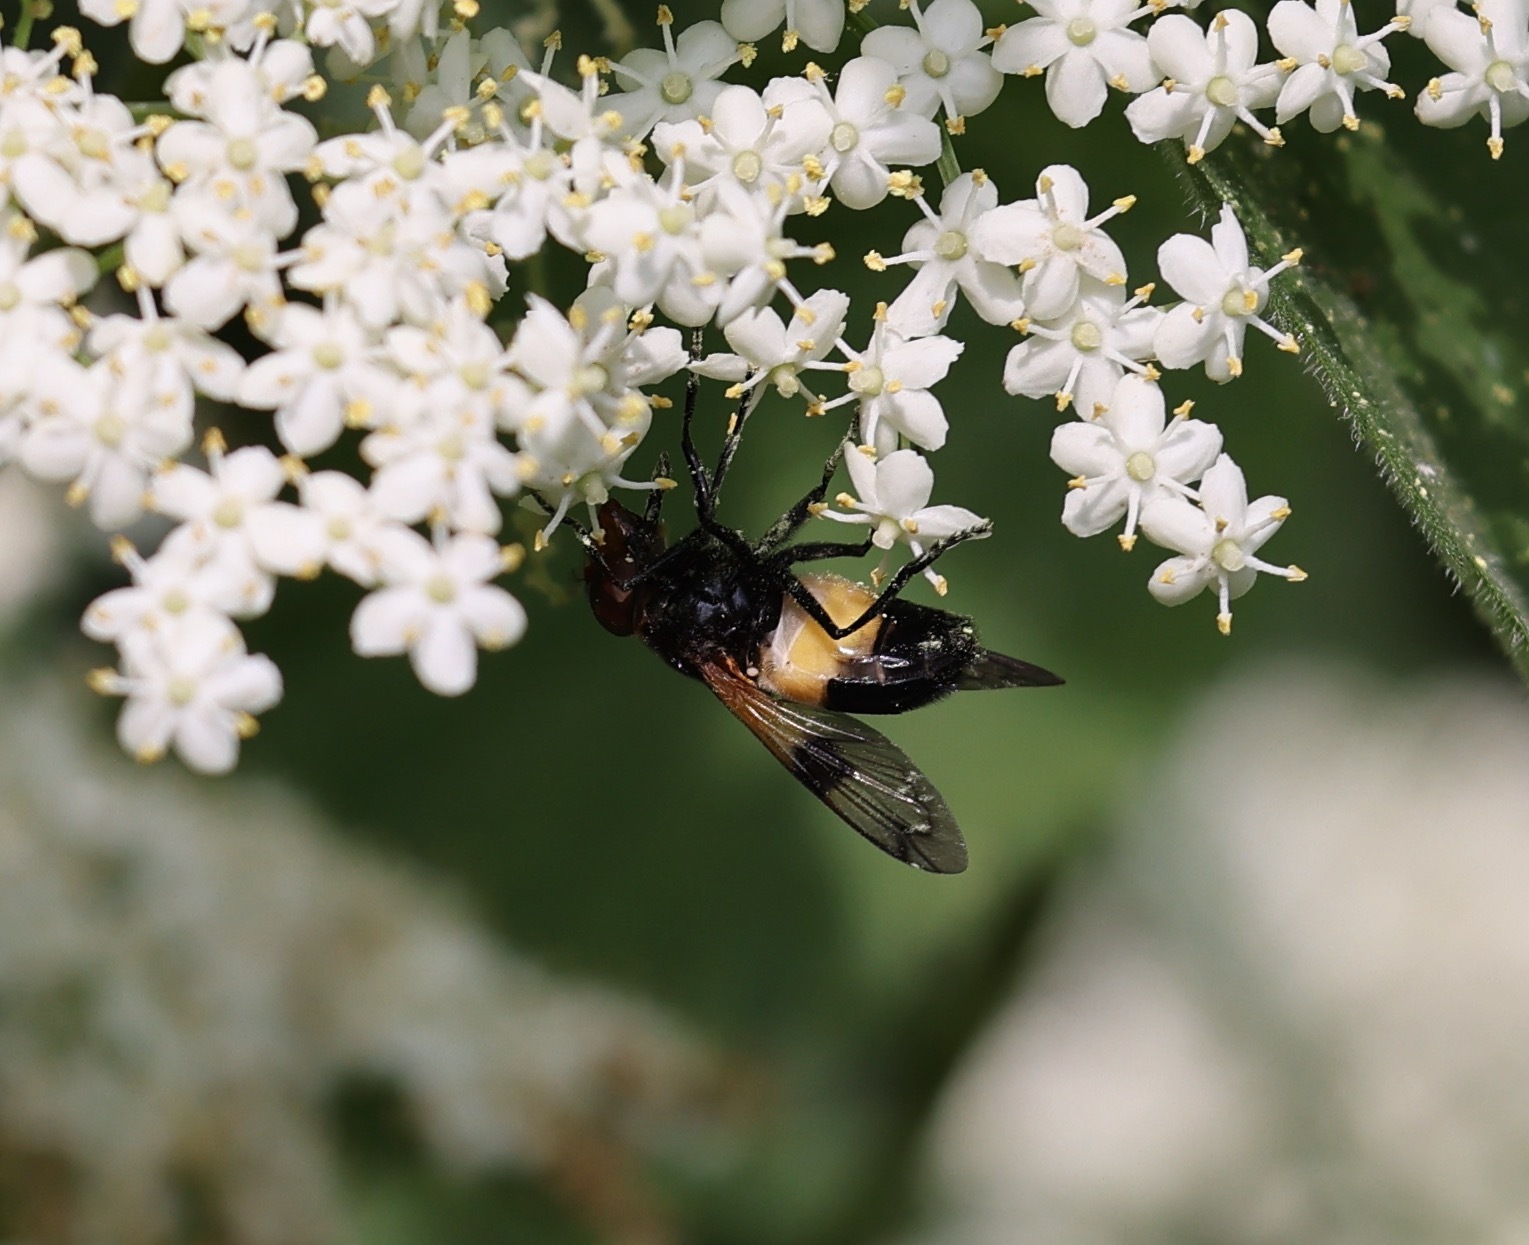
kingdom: Animalia
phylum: Arthropoda
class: Insecta
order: Diptera
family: Syrphidae
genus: Volucella
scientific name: Volucella pellucens
